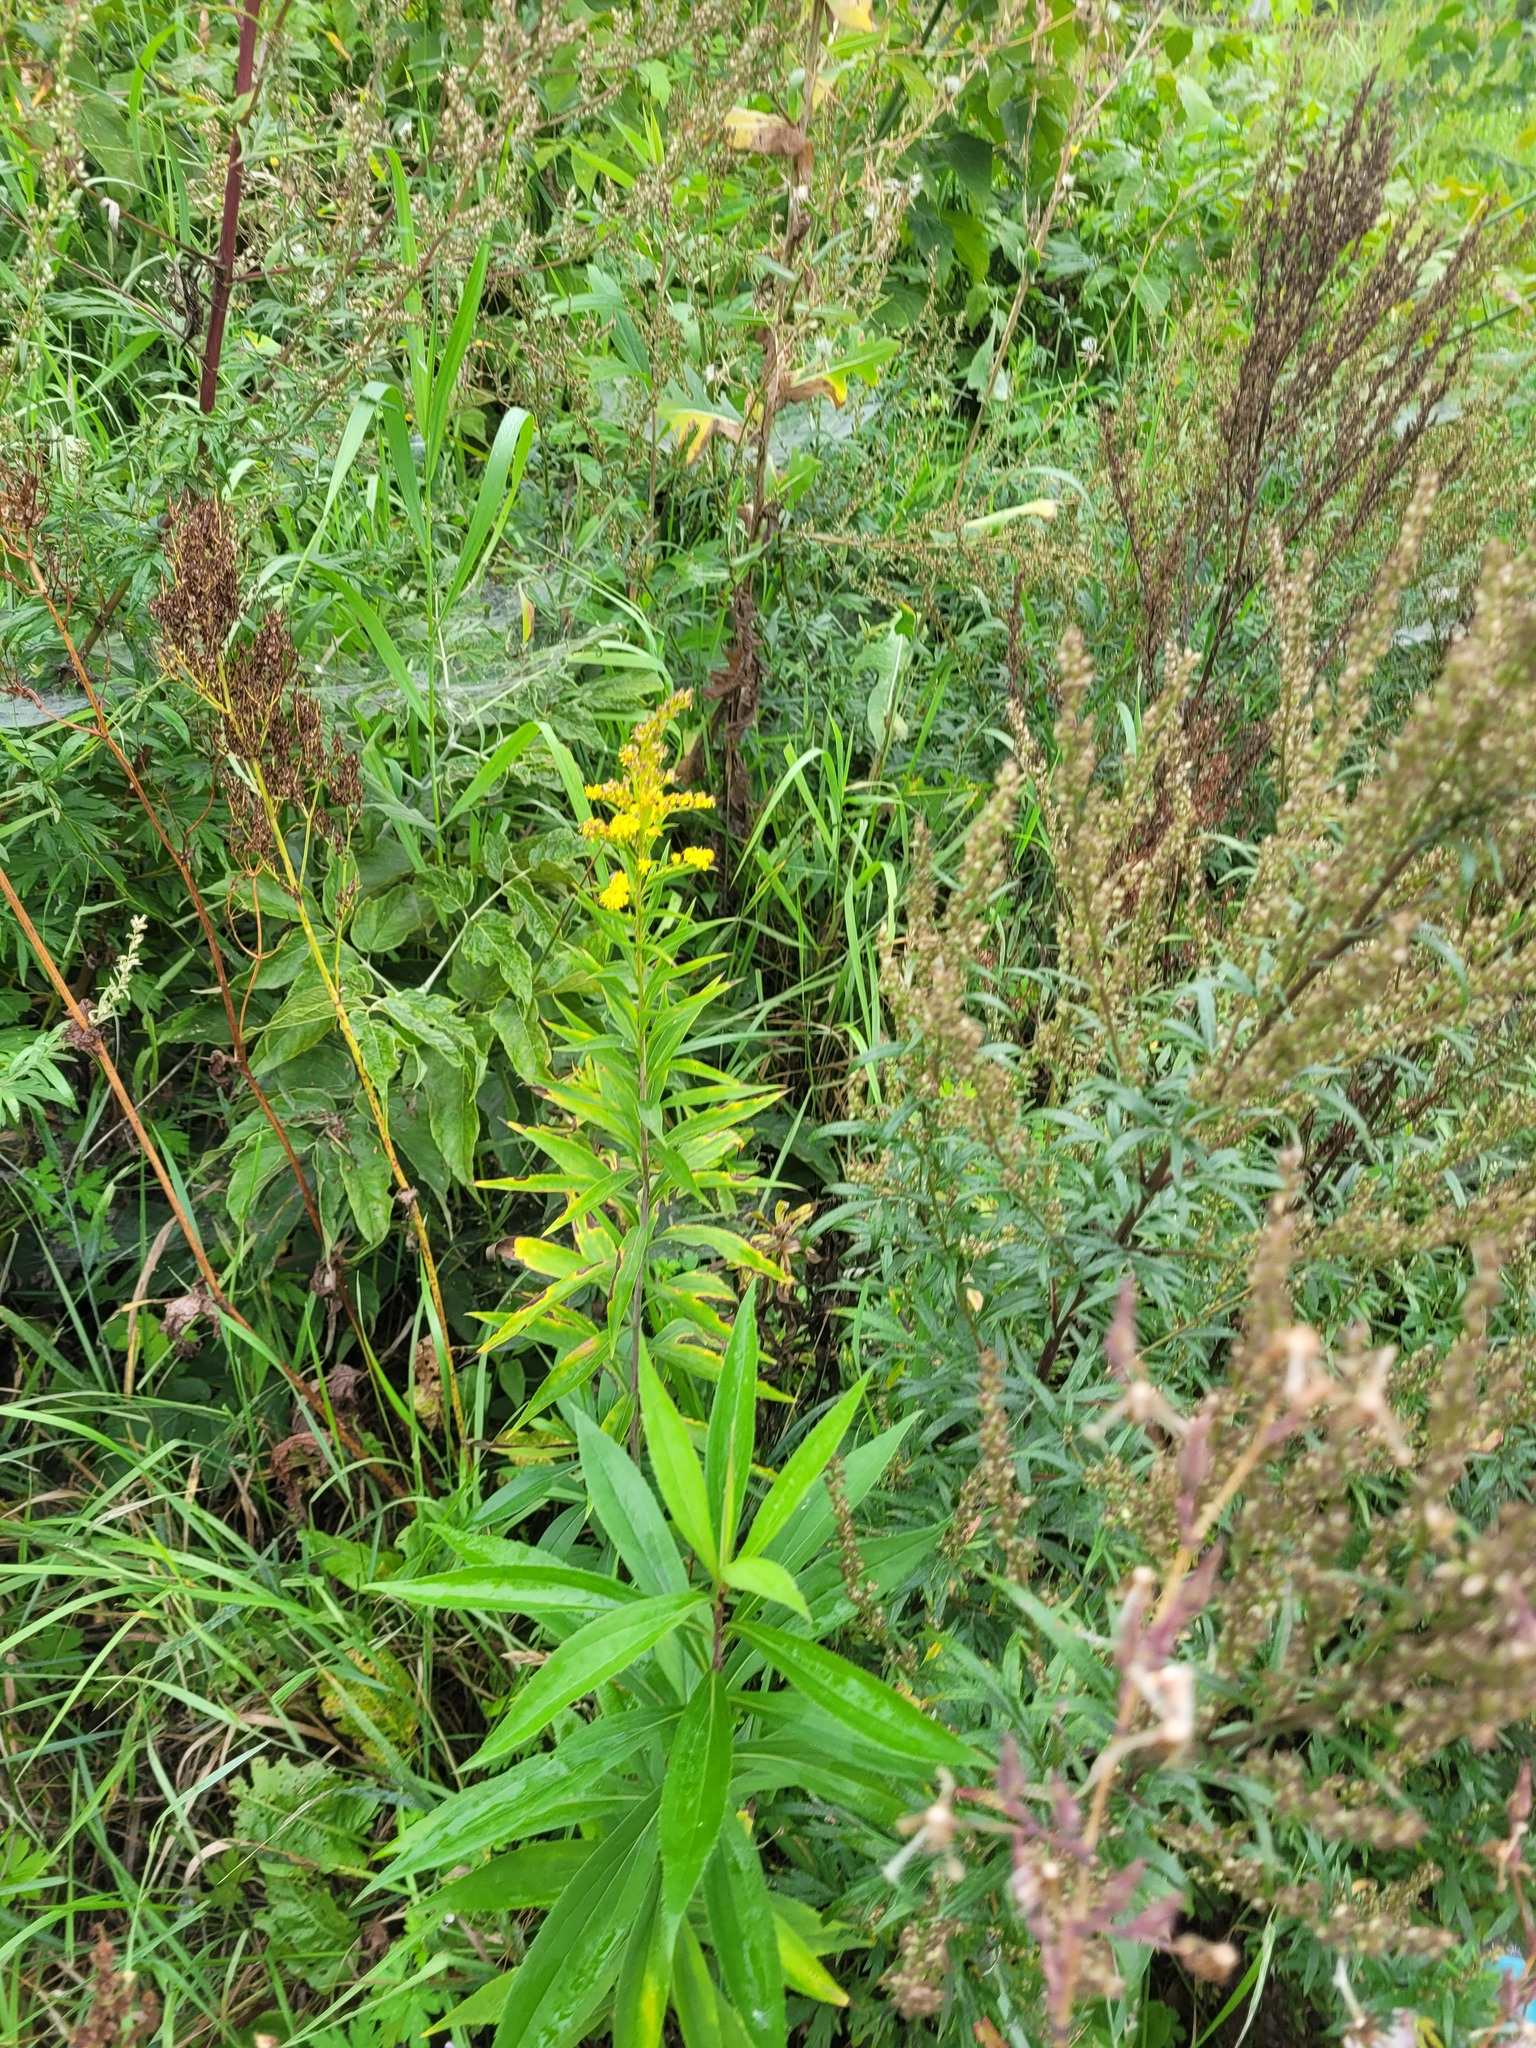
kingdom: Plantae
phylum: Tracheophyta
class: Magnoliopsida
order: Asterales
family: Asteraceae
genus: Solidago
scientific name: Solidago gigantea
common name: Giant goldenrod
